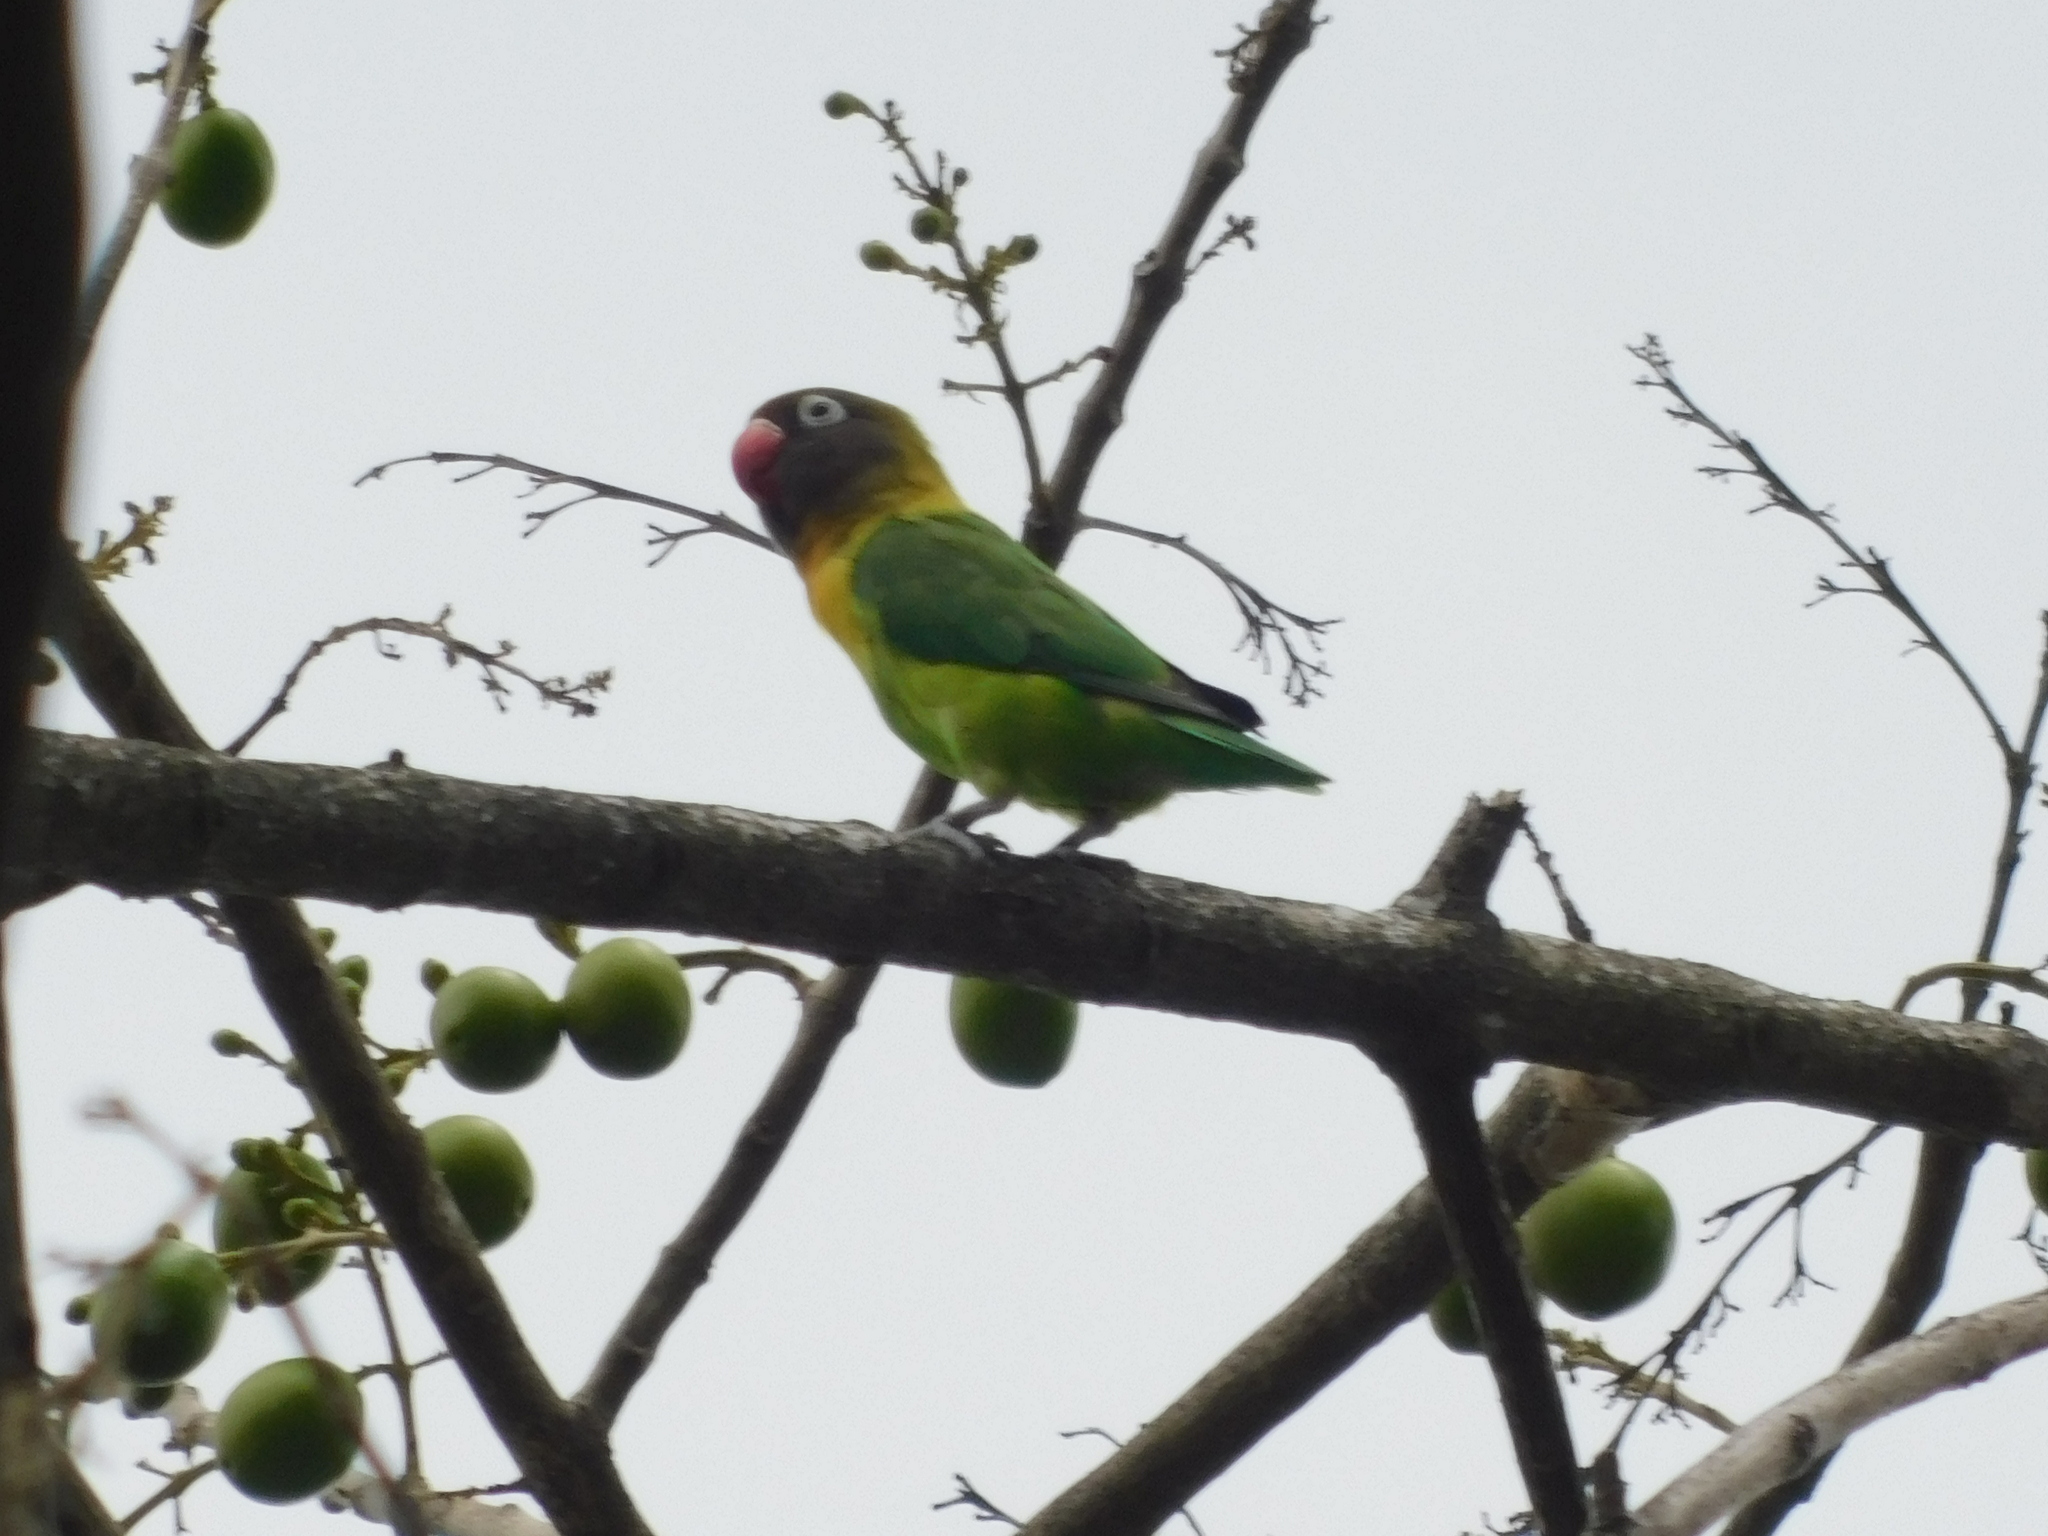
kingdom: Animalia
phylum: Chordata
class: Aves
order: Psittaciformes
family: Psittacidae
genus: Agapornis
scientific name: Agapornis personatus
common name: Yellow-collared lovebird
